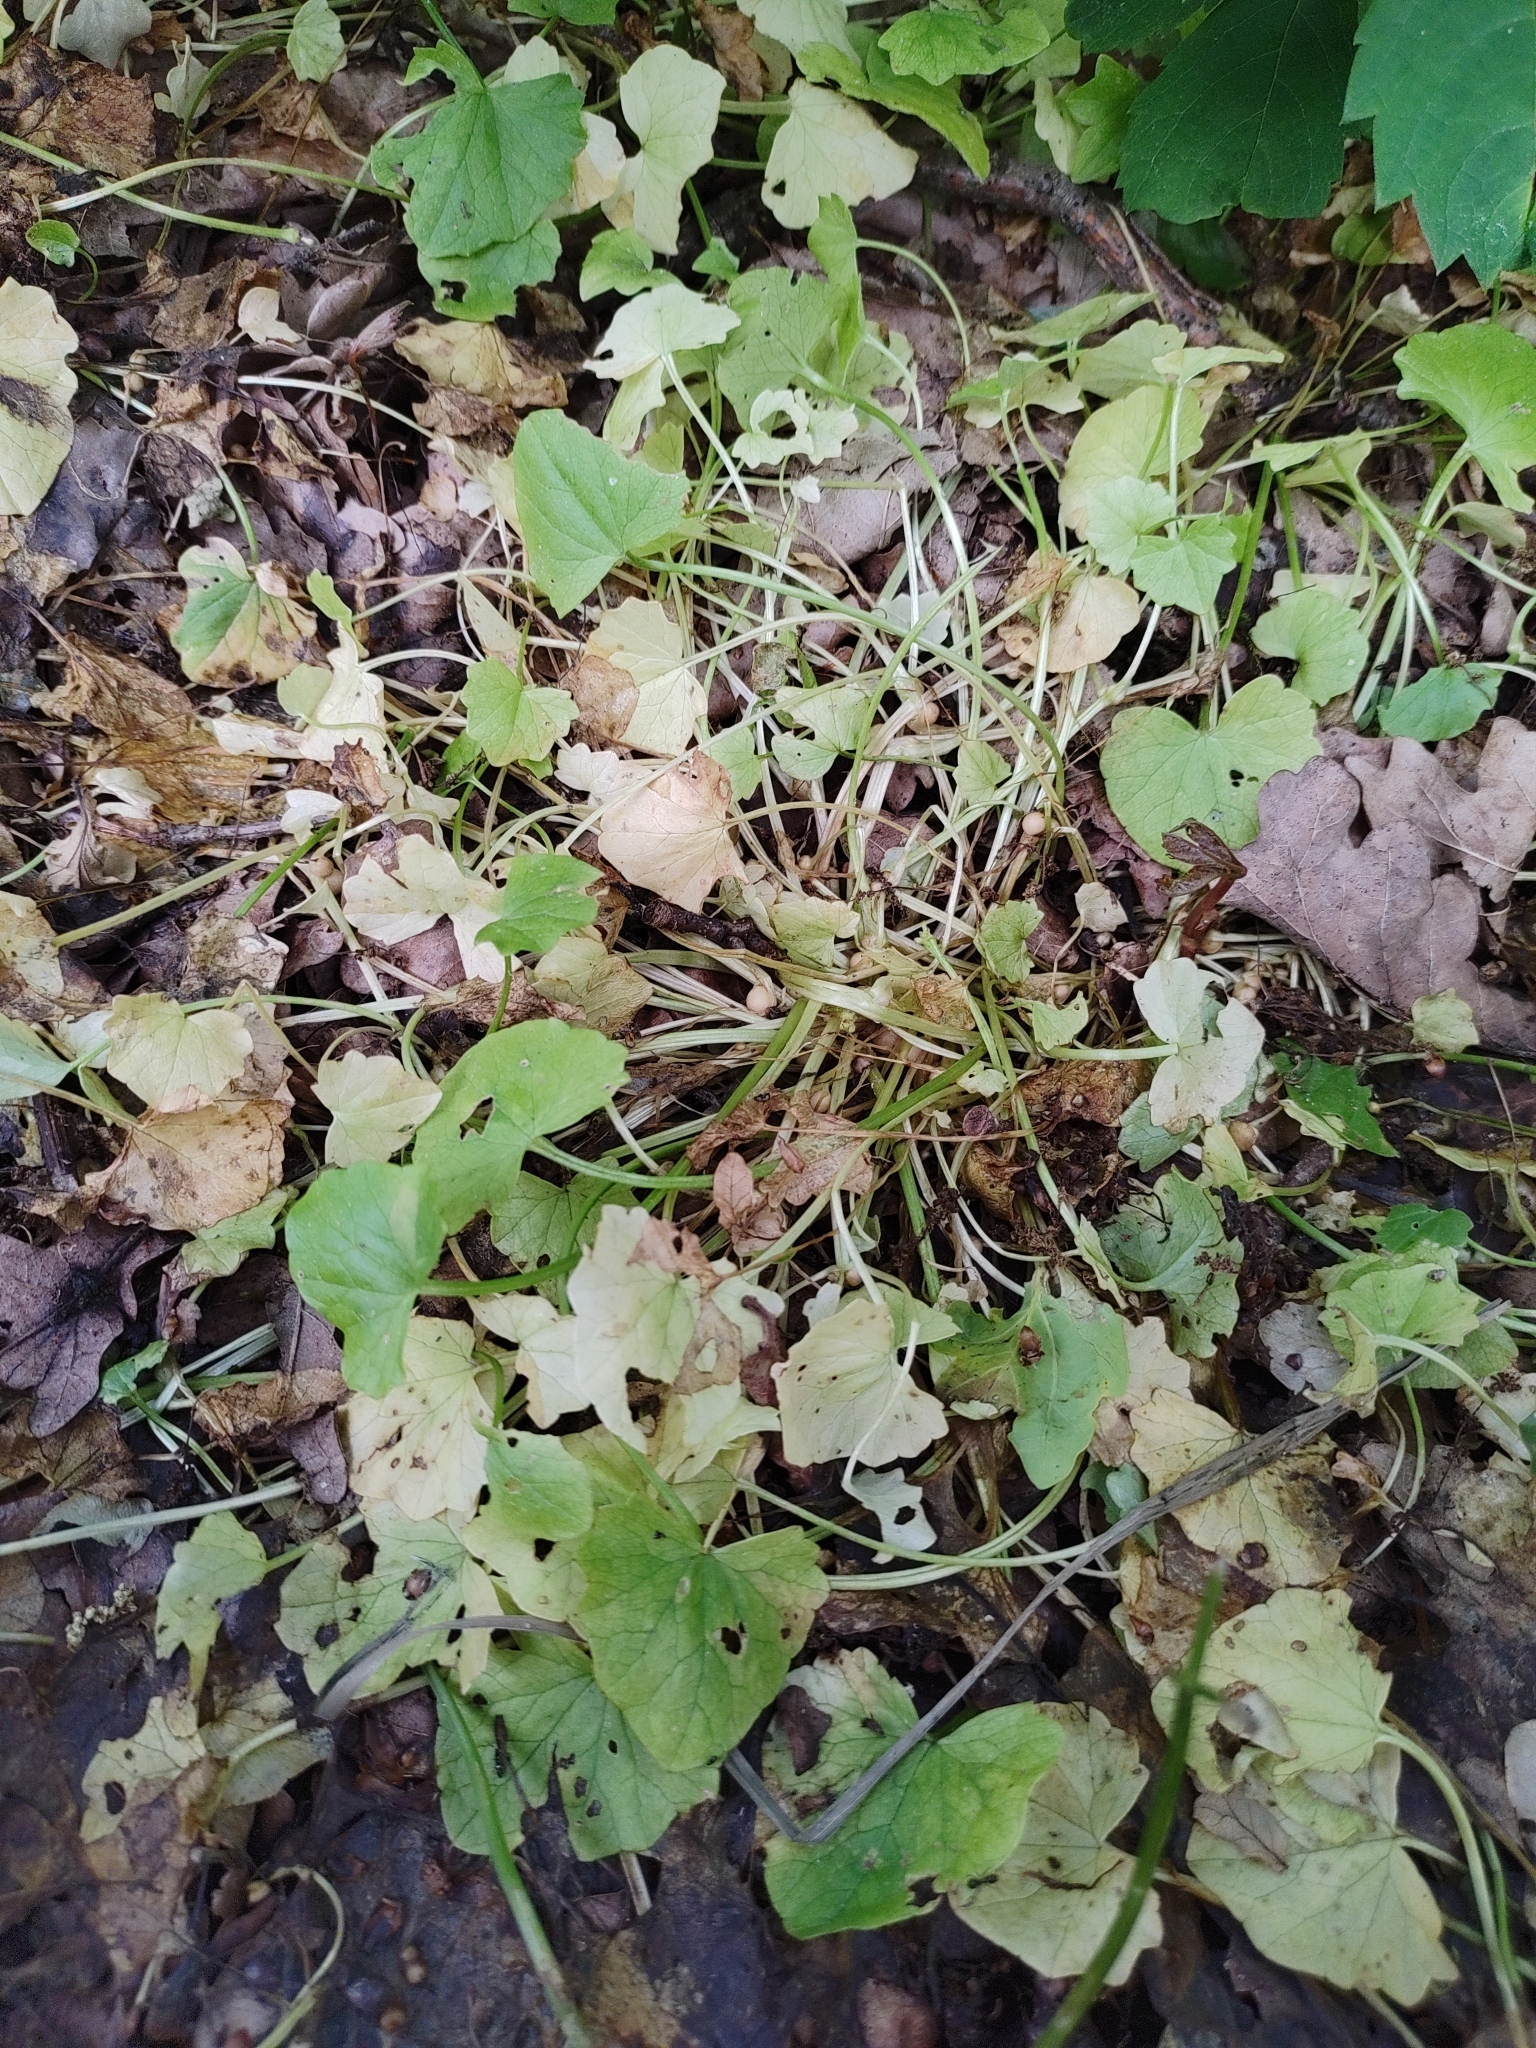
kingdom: Plantae
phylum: Tracheophyta
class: Magnoliopsida
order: Ranunculales
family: Ranunculaceae
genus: Ficaria
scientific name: Ficaria verna
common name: Lesser celandine
